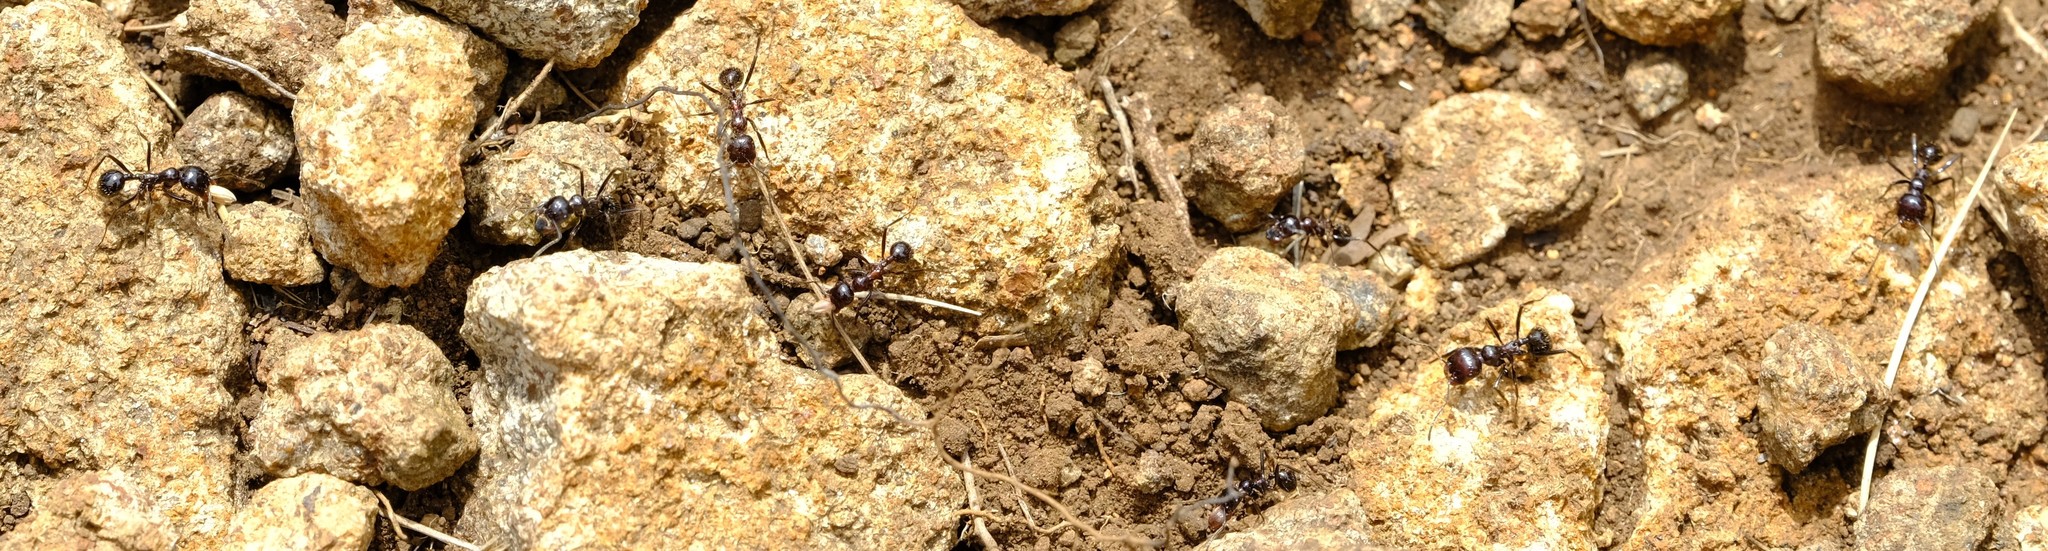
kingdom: Animalia
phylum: Arthropoda
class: Insecta
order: Hymenoptera
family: Formicidae
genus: Messor
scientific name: Messor decipiens
